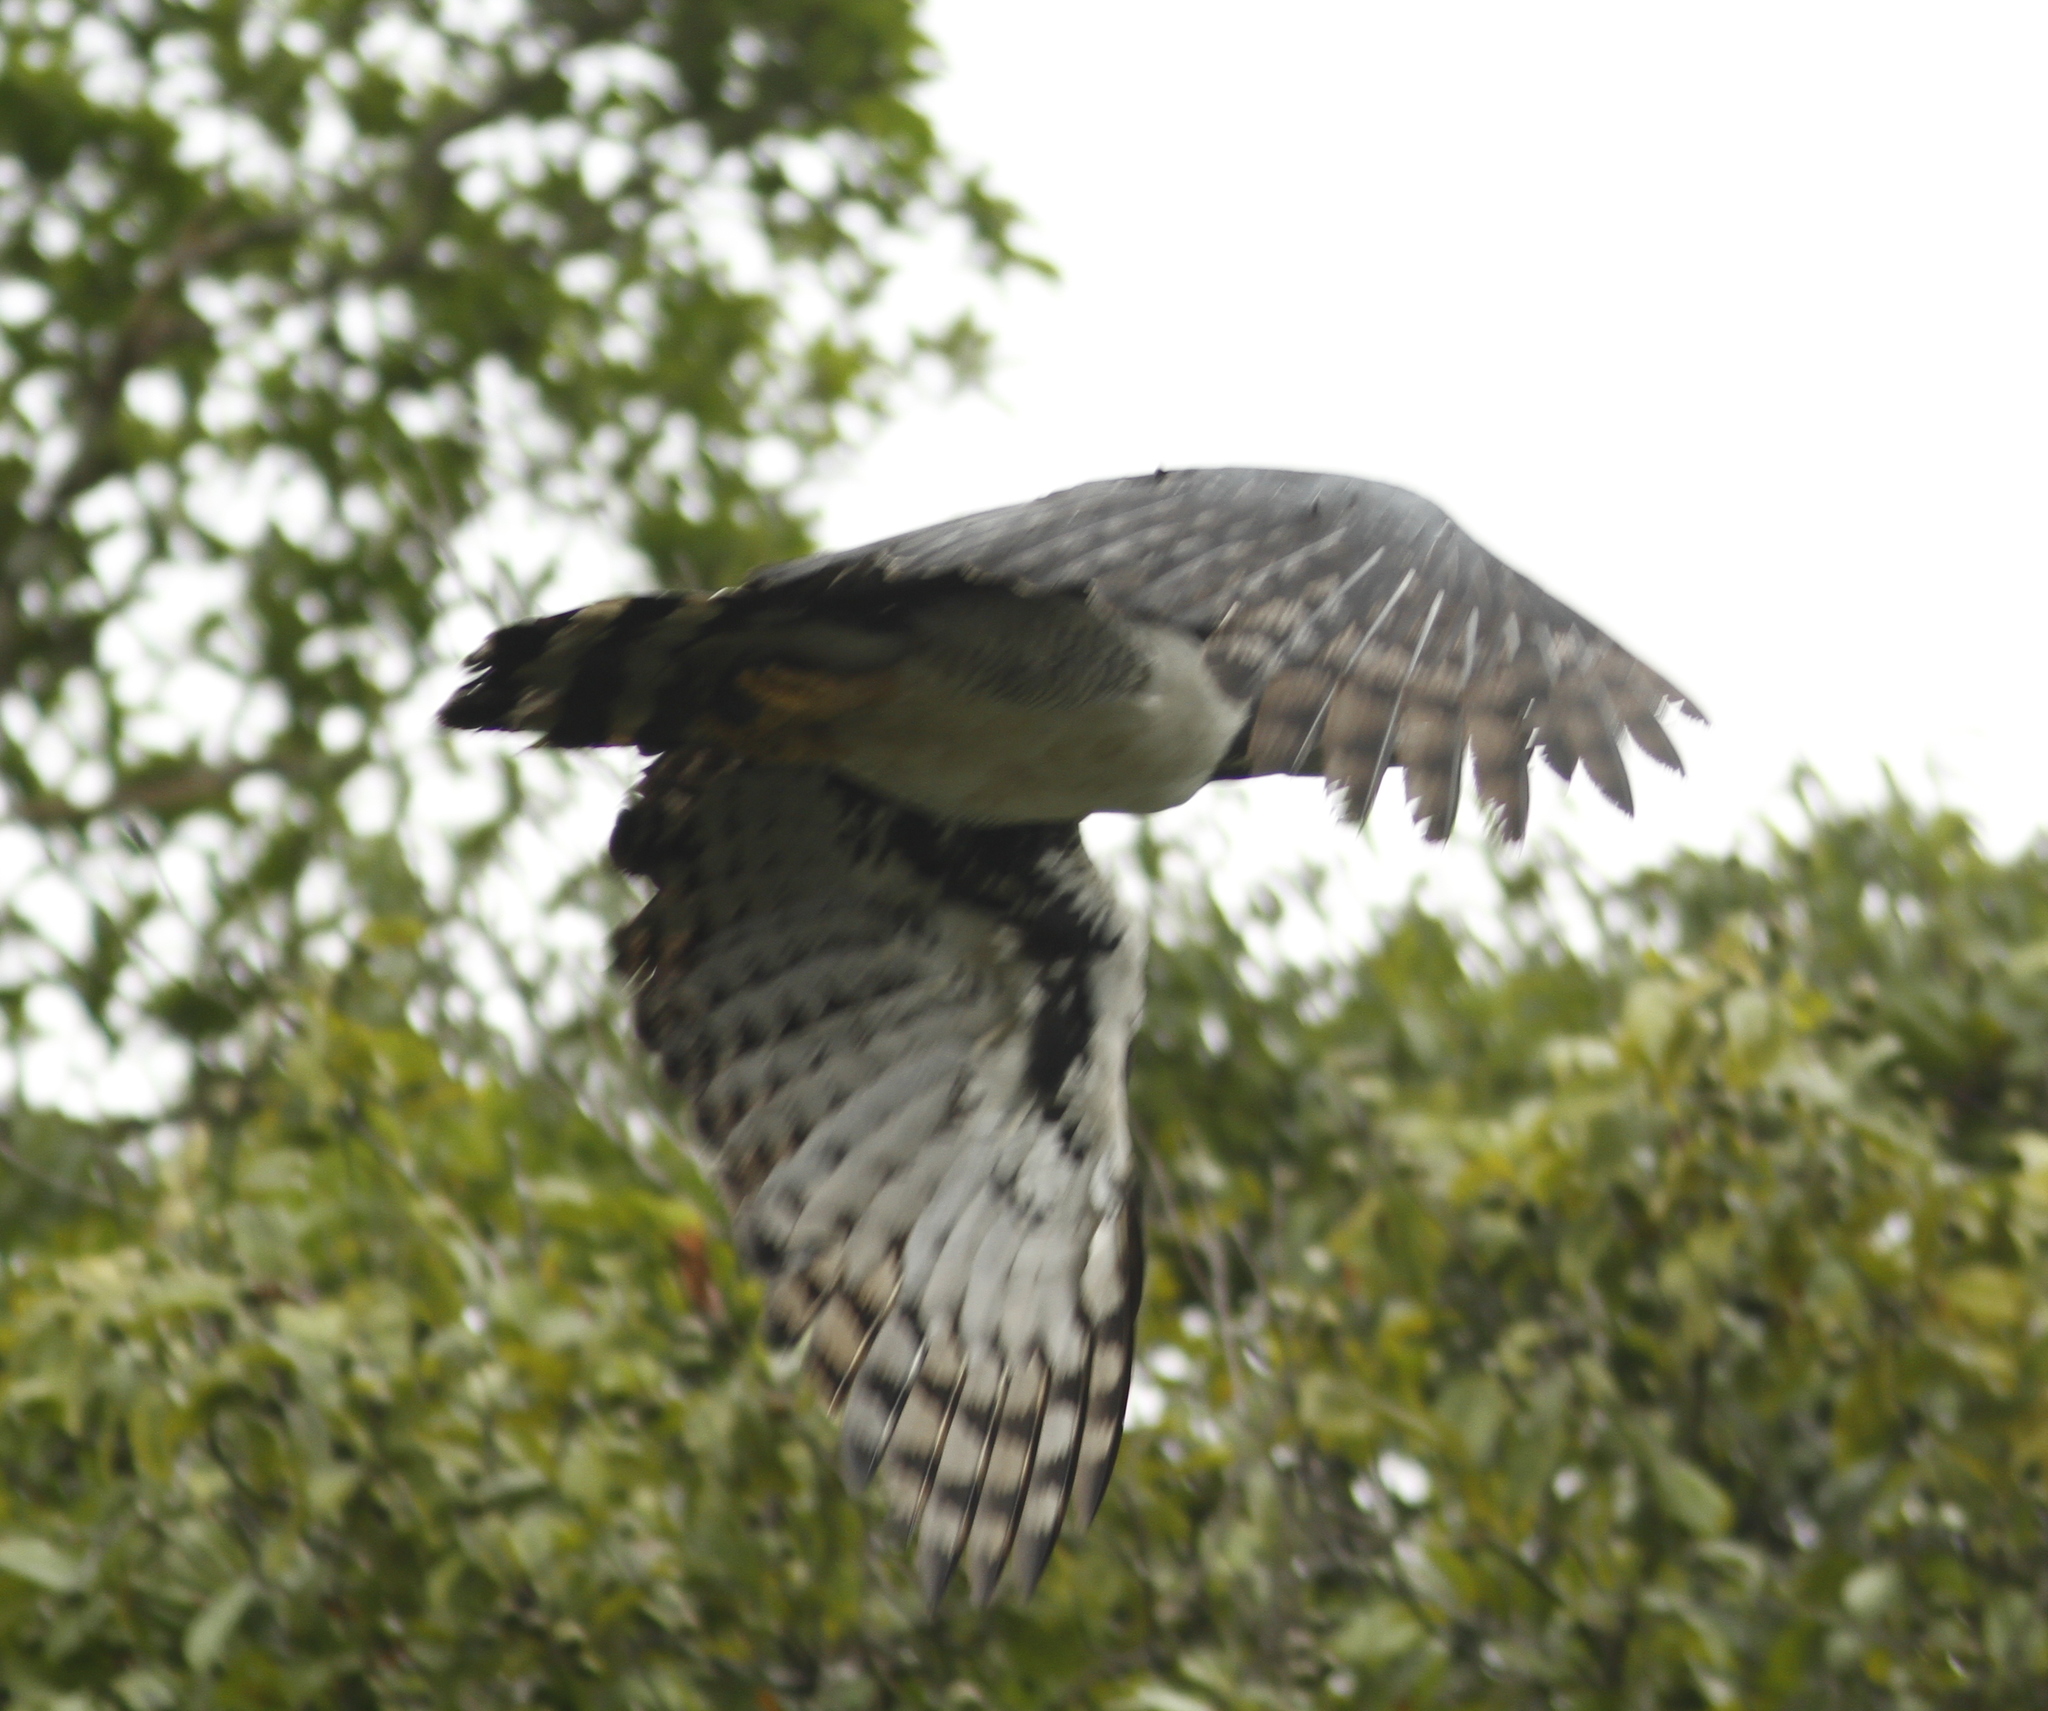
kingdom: Animalia
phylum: Chordata
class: Aves
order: Accipitriformes
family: Accipitridae
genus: Harpia
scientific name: Harpia harpyja
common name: Harpy eagle
